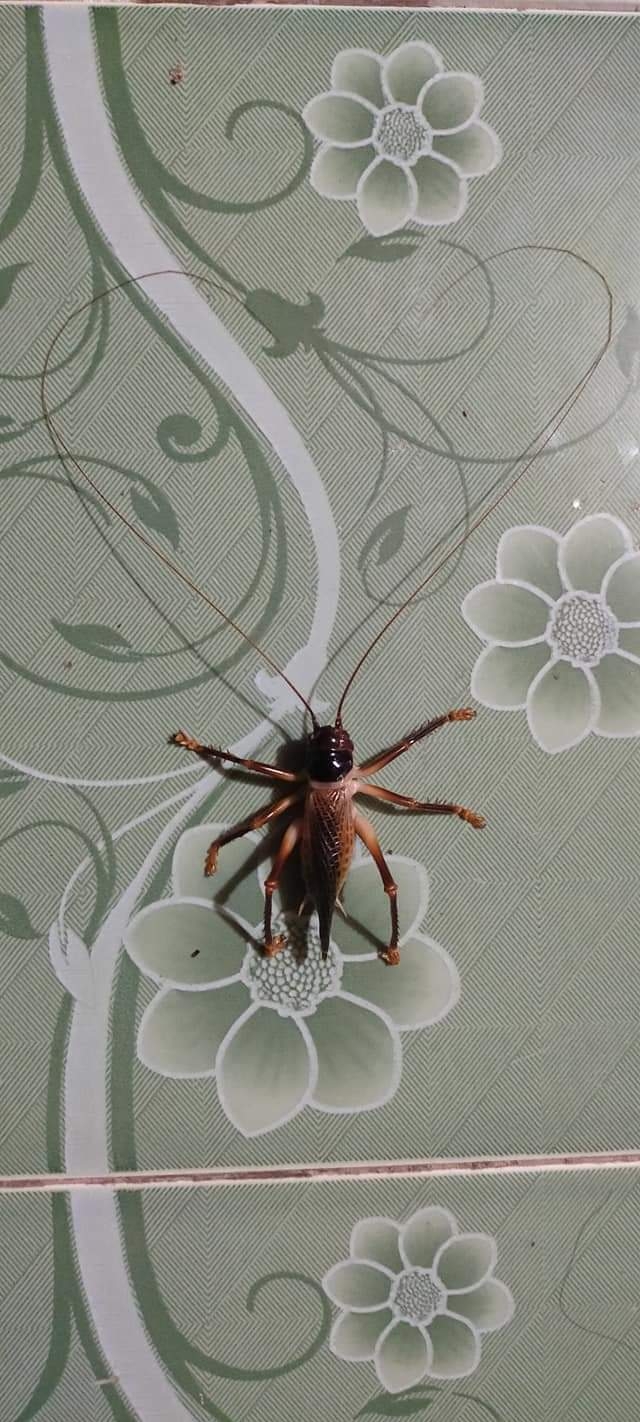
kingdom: Animalia
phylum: Arthropoda
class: Insecta
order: Orthoptera
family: Gryllacrididae
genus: Eugryllacris
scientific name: Eugryllacris loriae
